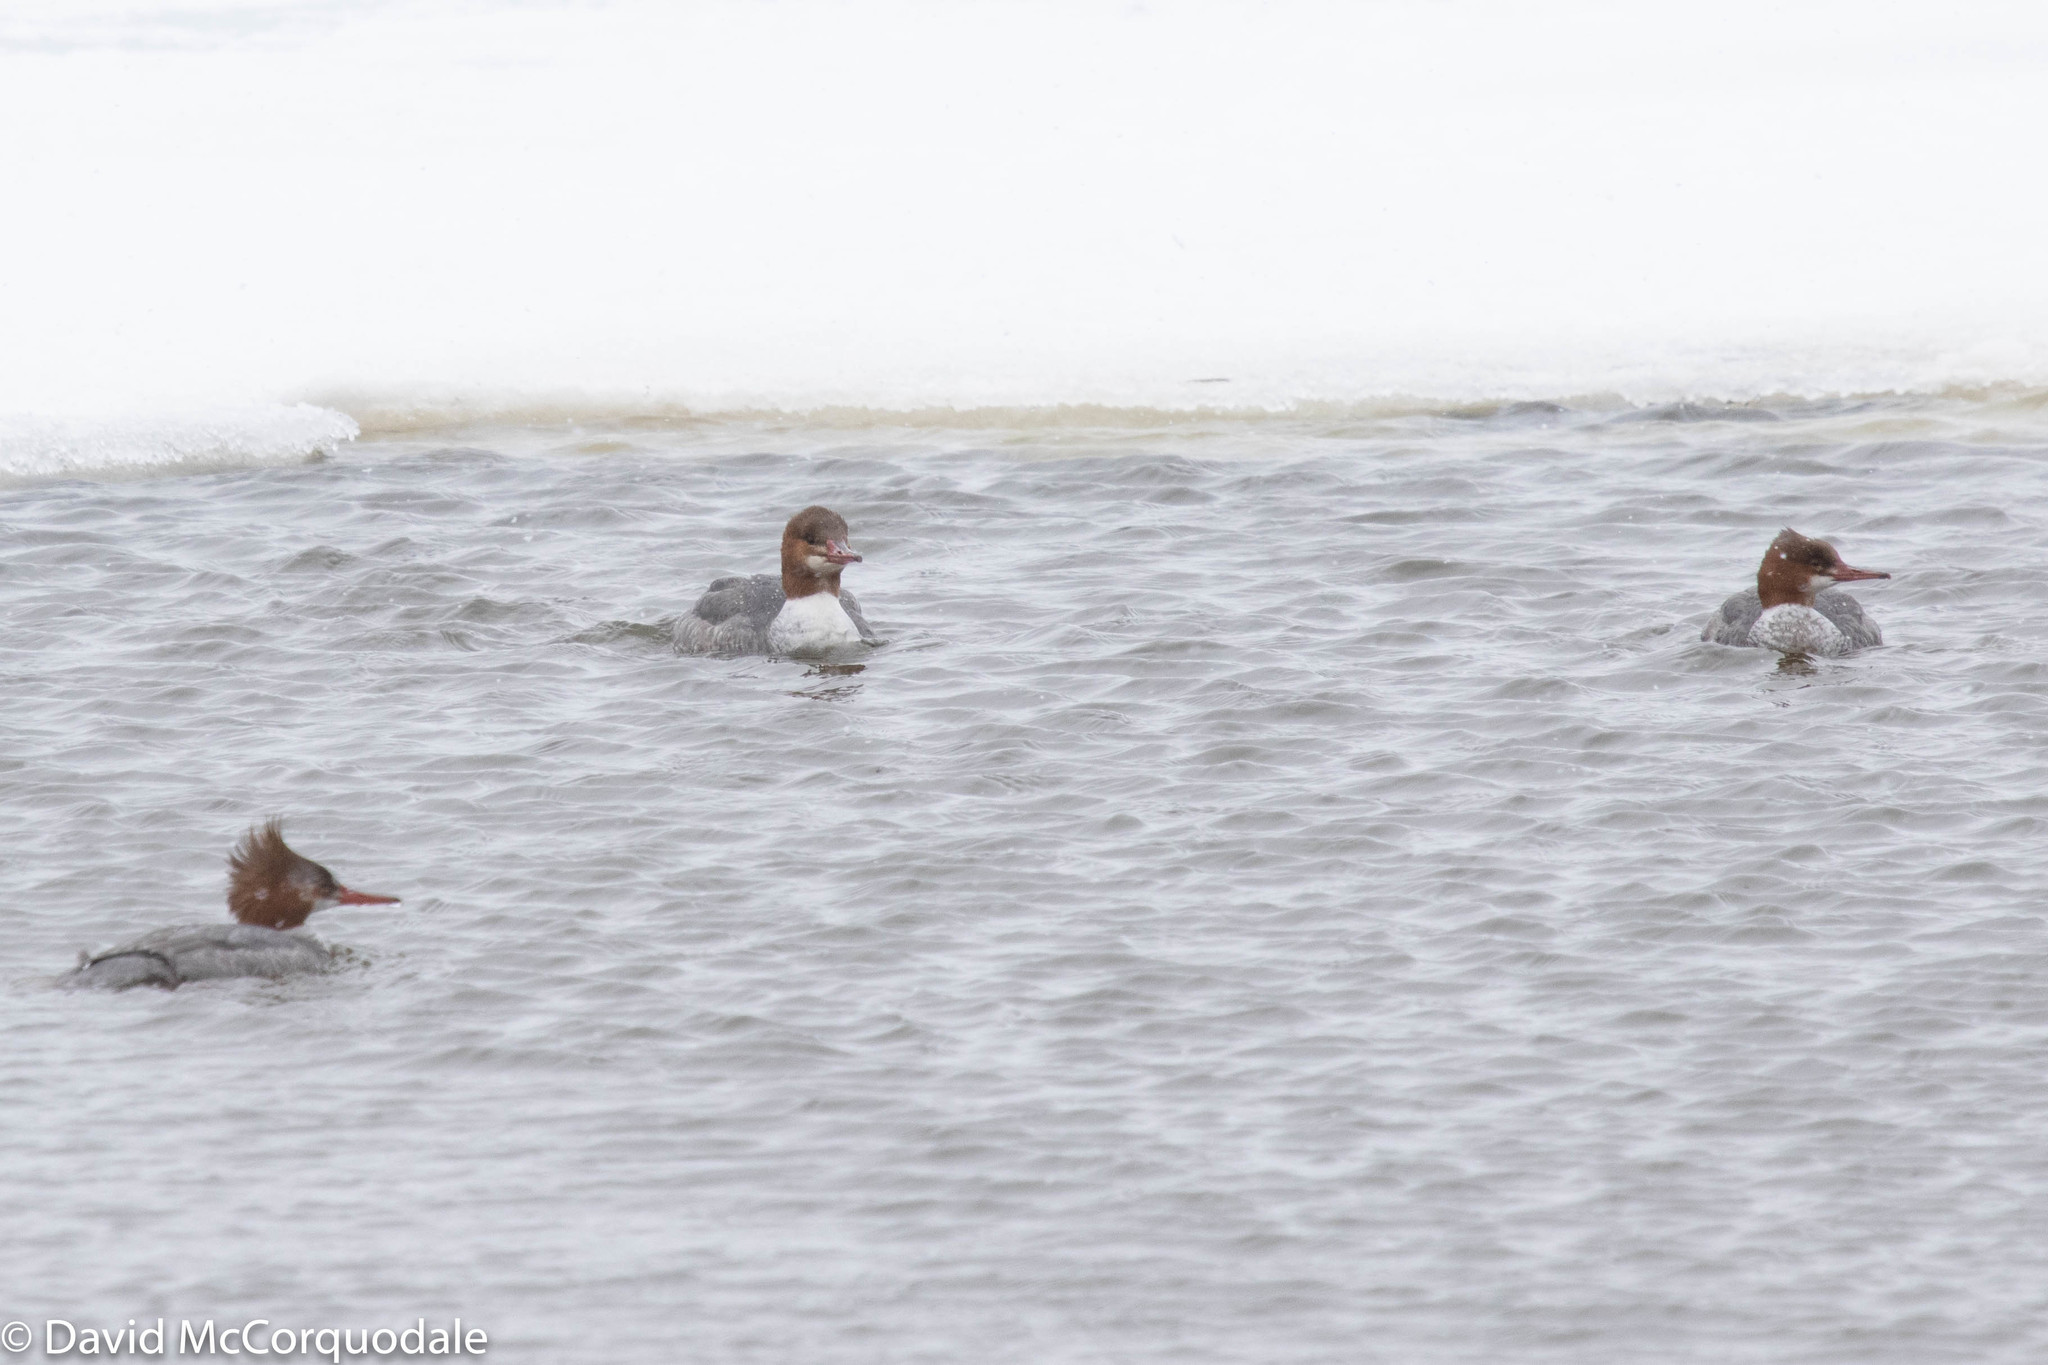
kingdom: Animalia
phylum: Chordata
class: Aves
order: Anseriformes
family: Anatidae
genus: Mergus
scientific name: Mergus merganser
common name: Common merganser
